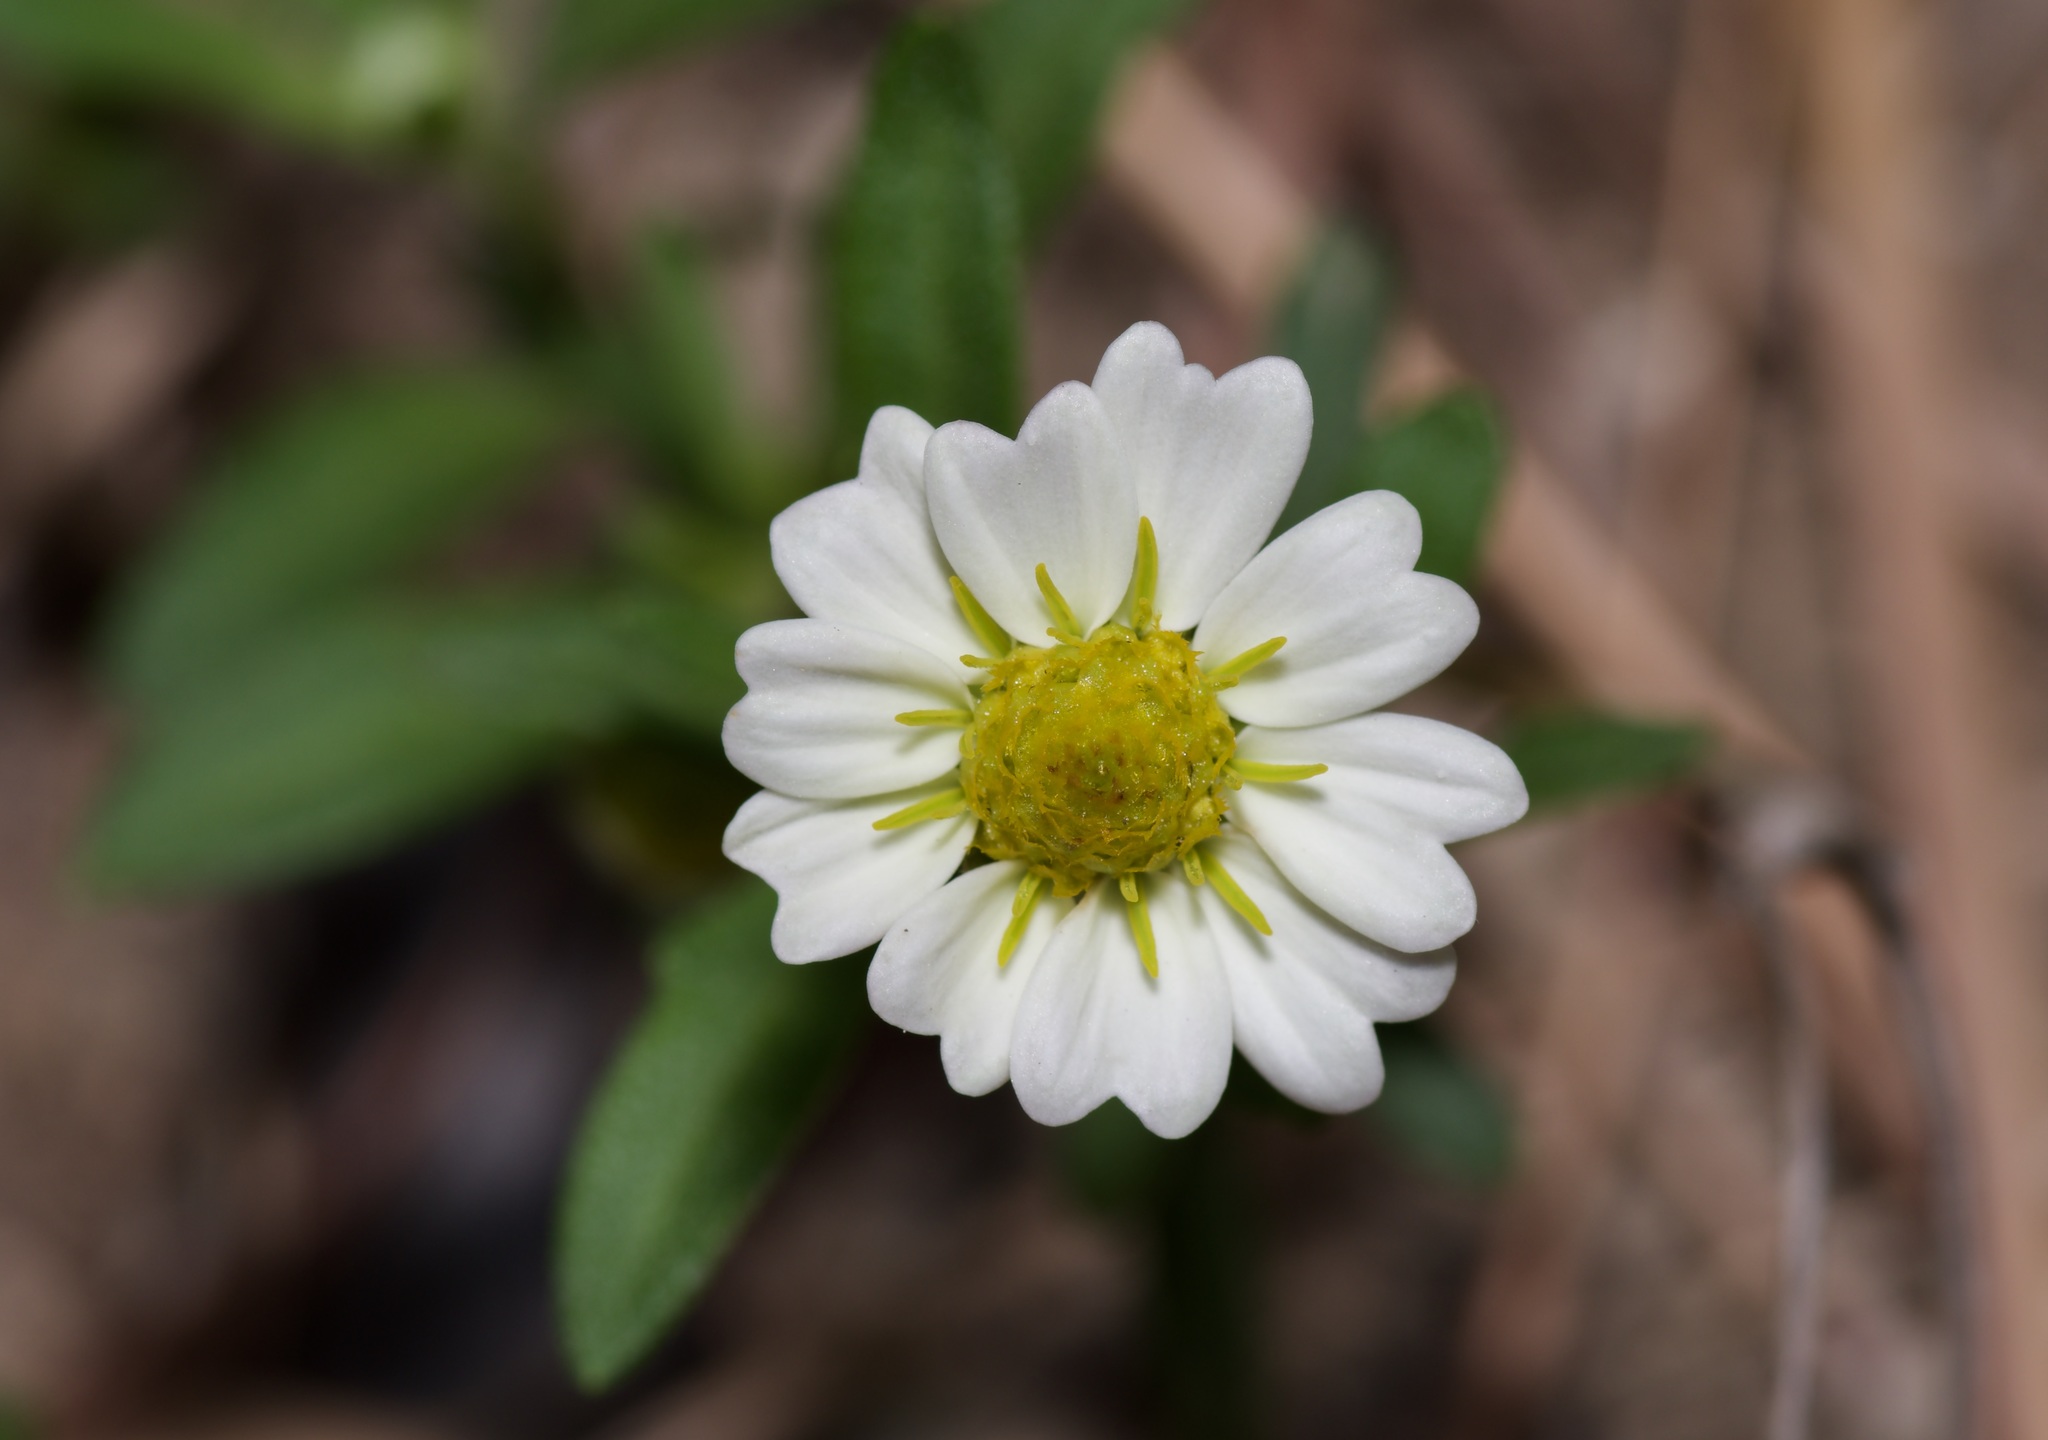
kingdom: Plantae
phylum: Tracheophyta
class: Magnoliopsida
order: Asterales
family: Asteraceae
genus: Melampodium
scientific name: Melampodium leucanthum
